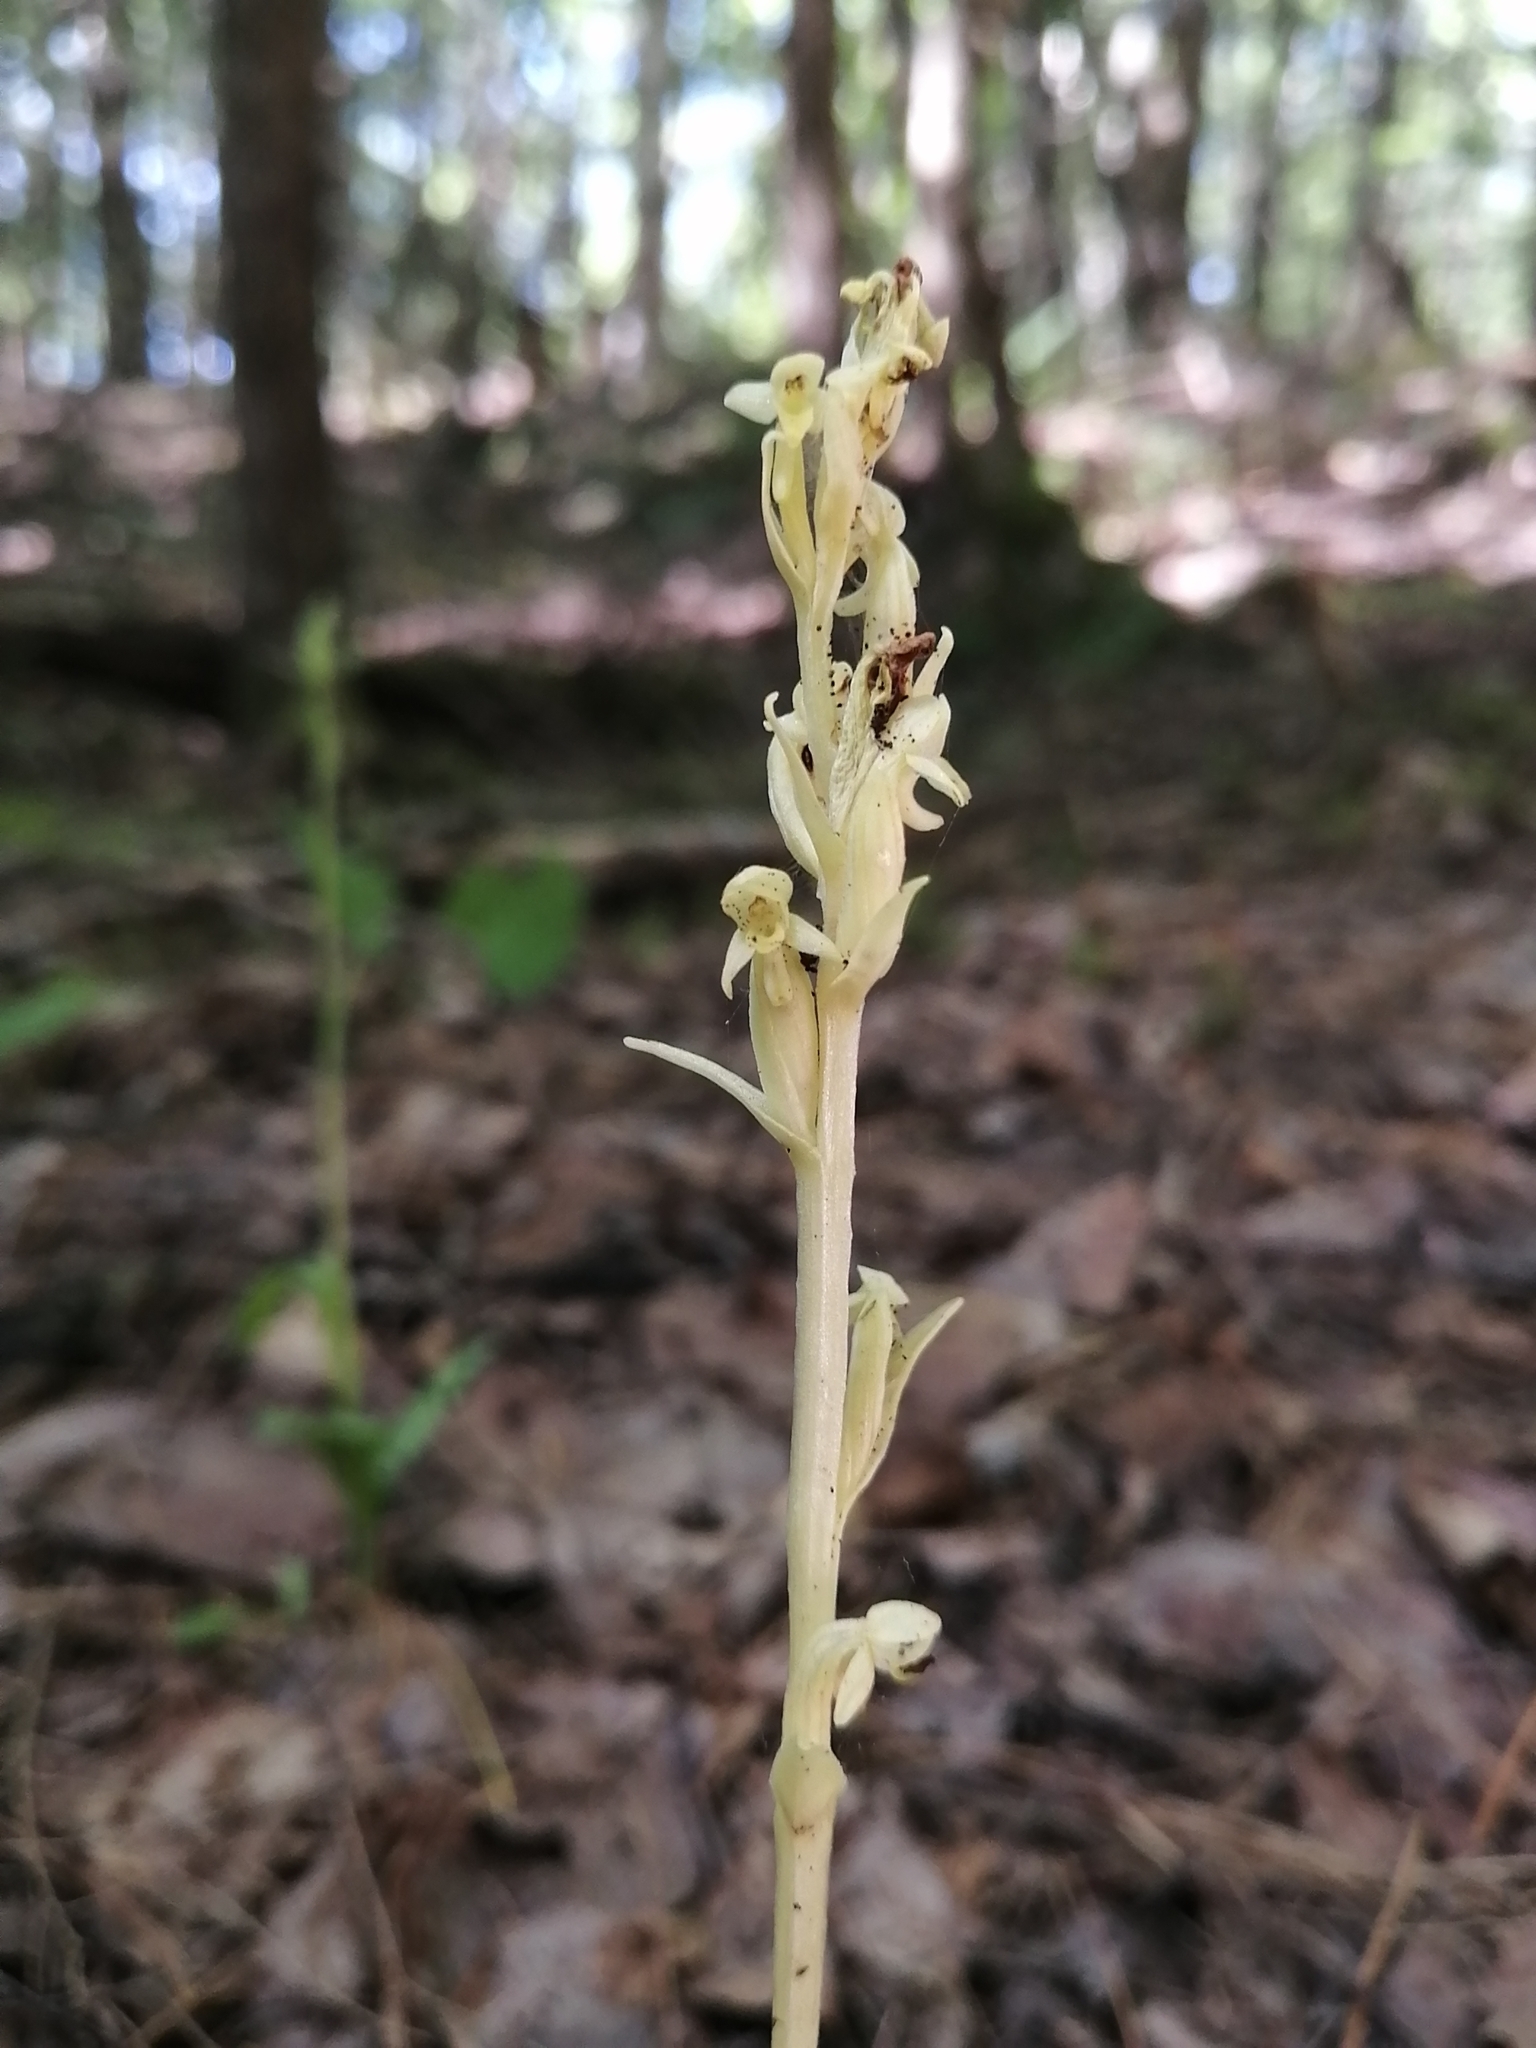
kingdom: Plantae
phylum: Tracheophyta
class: Liliopsida
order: Asparagales
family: Orchidaceae
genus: Platanthera
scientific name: Platanthera aquilonis
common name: Northern green orchid
